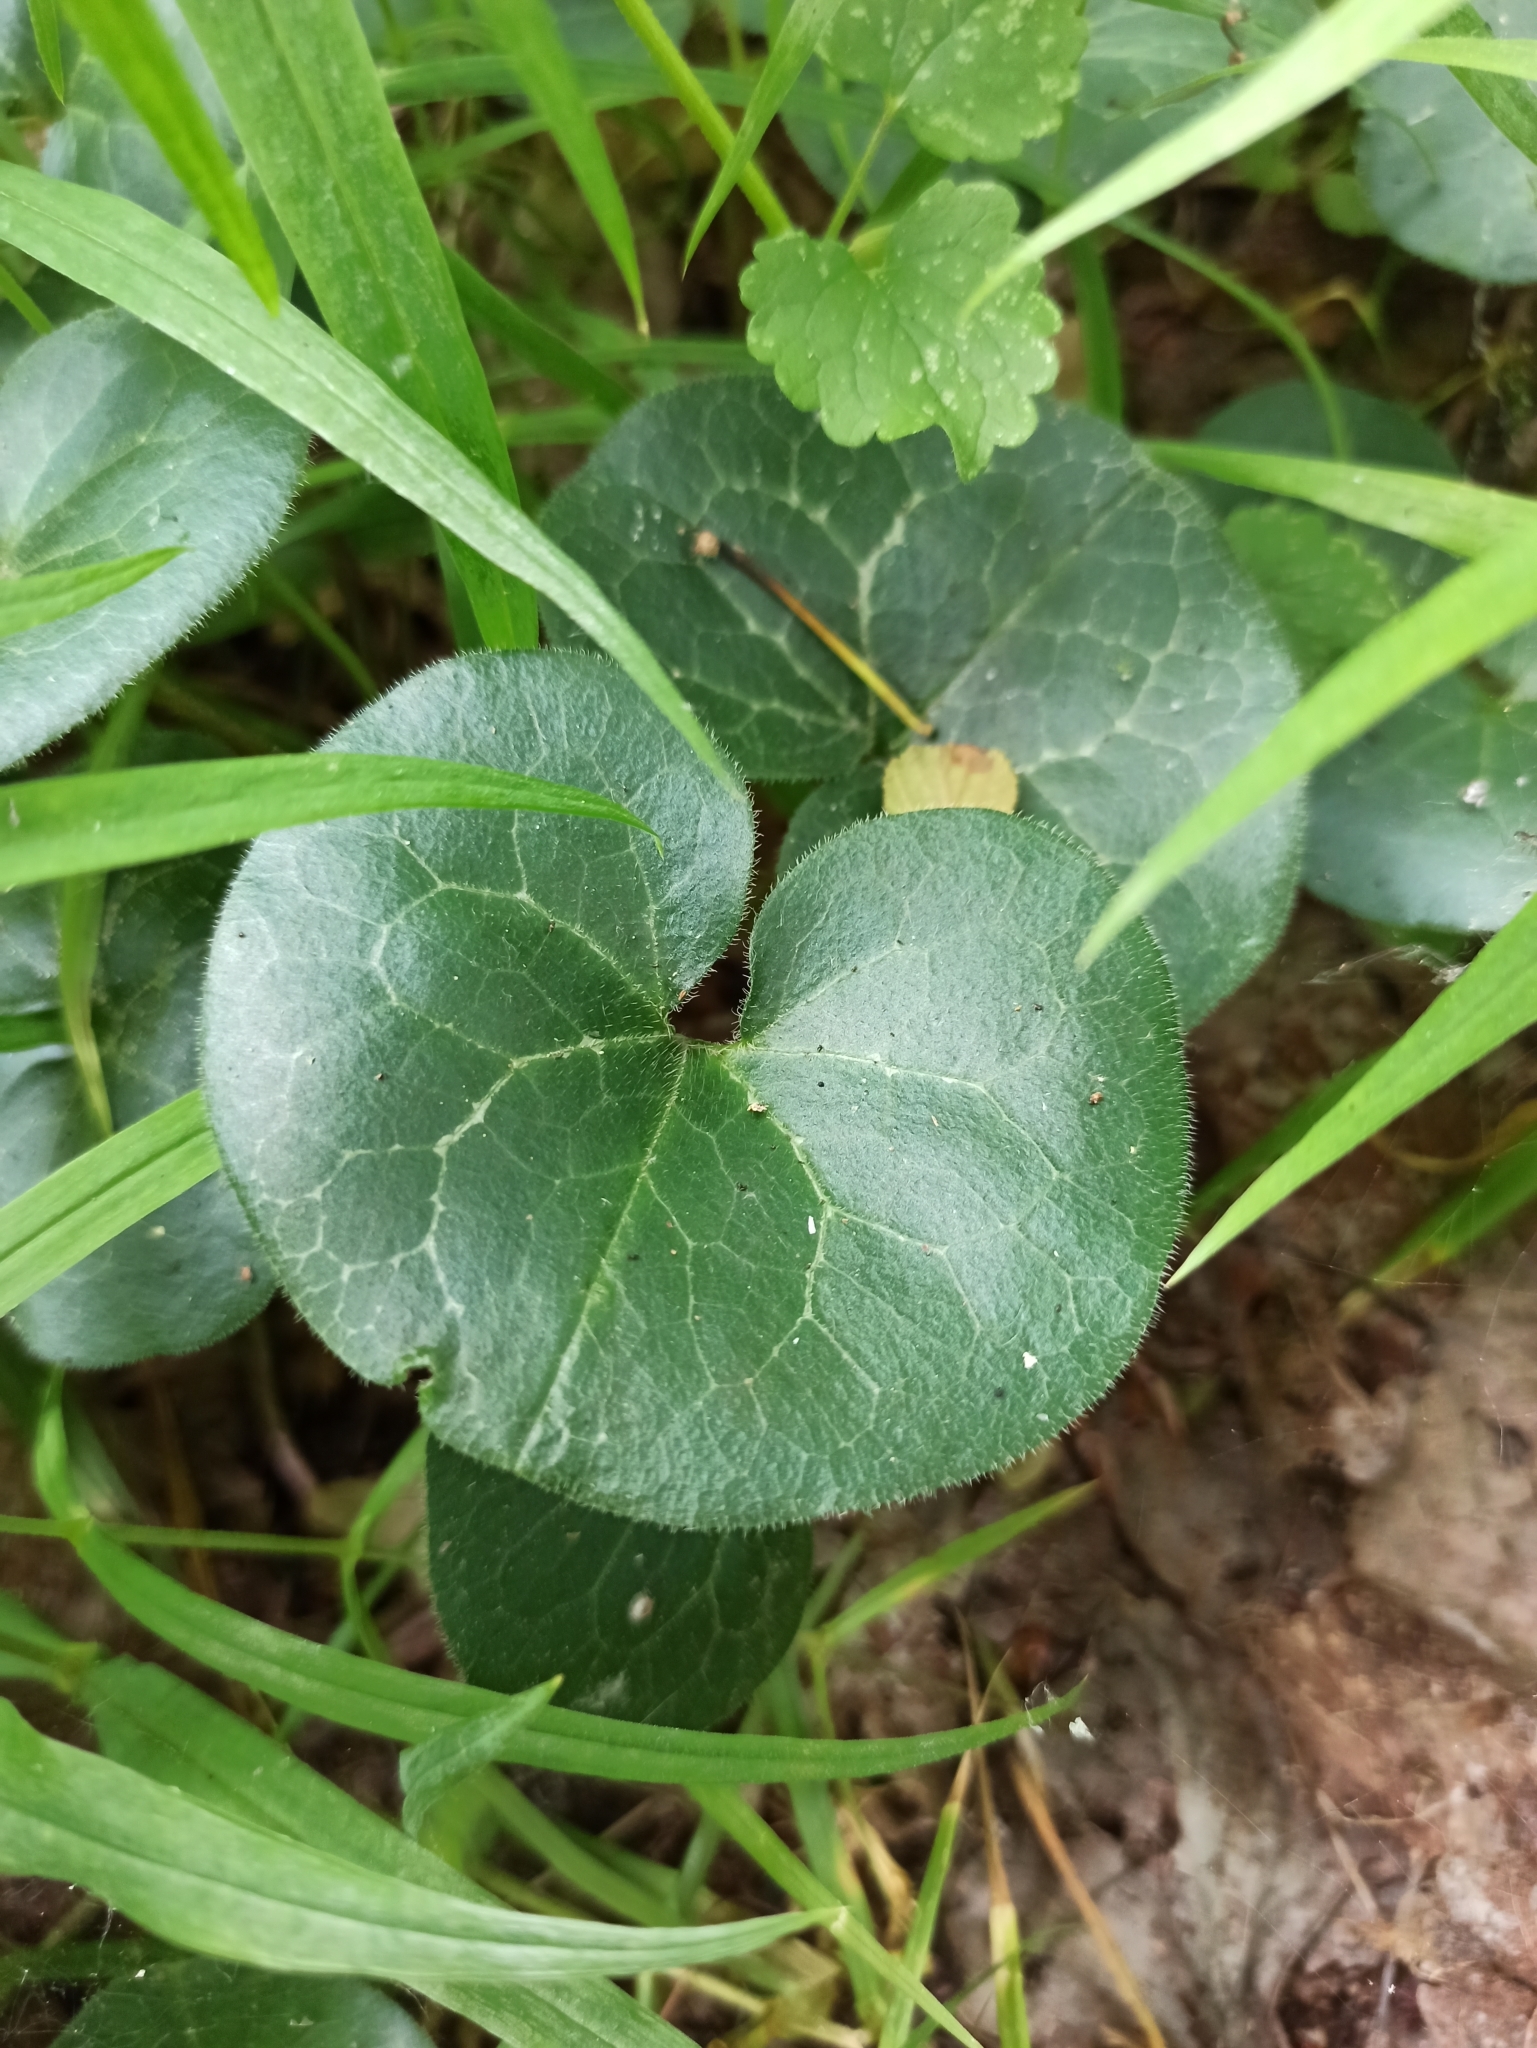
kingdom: Plantae
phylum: Tracheophyta
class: Magnoliopsida
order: Piperales
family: Aristolochiaceae
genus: Asarum
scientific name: Asarum europaeum
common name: Asarabacca
